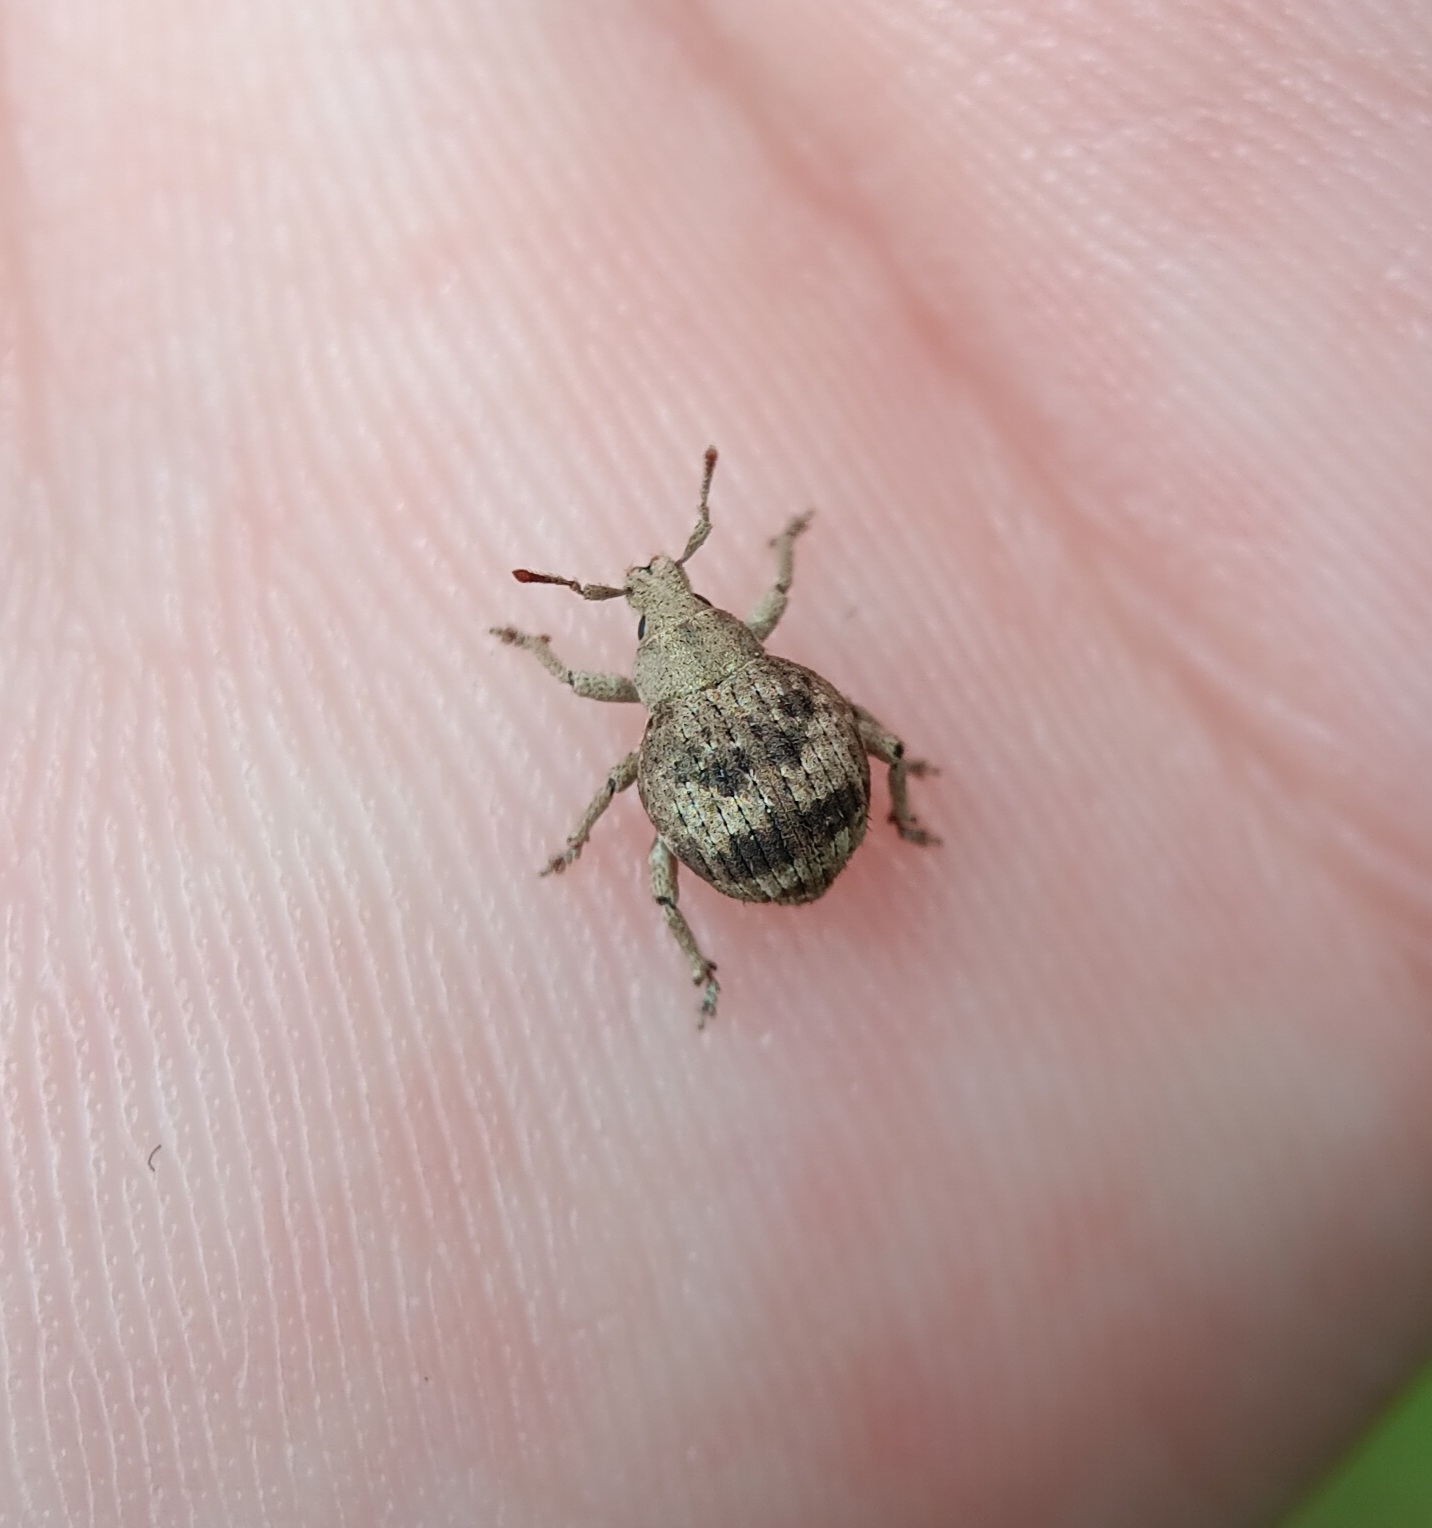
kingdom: Animalia
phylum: Arthropoda
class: Insecta
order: Coleoptera
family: Curculionidae
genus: Pseudocneorhinus
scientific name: Pseudocneorhinus bifasciatus
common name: Two-banded japanese weevil
